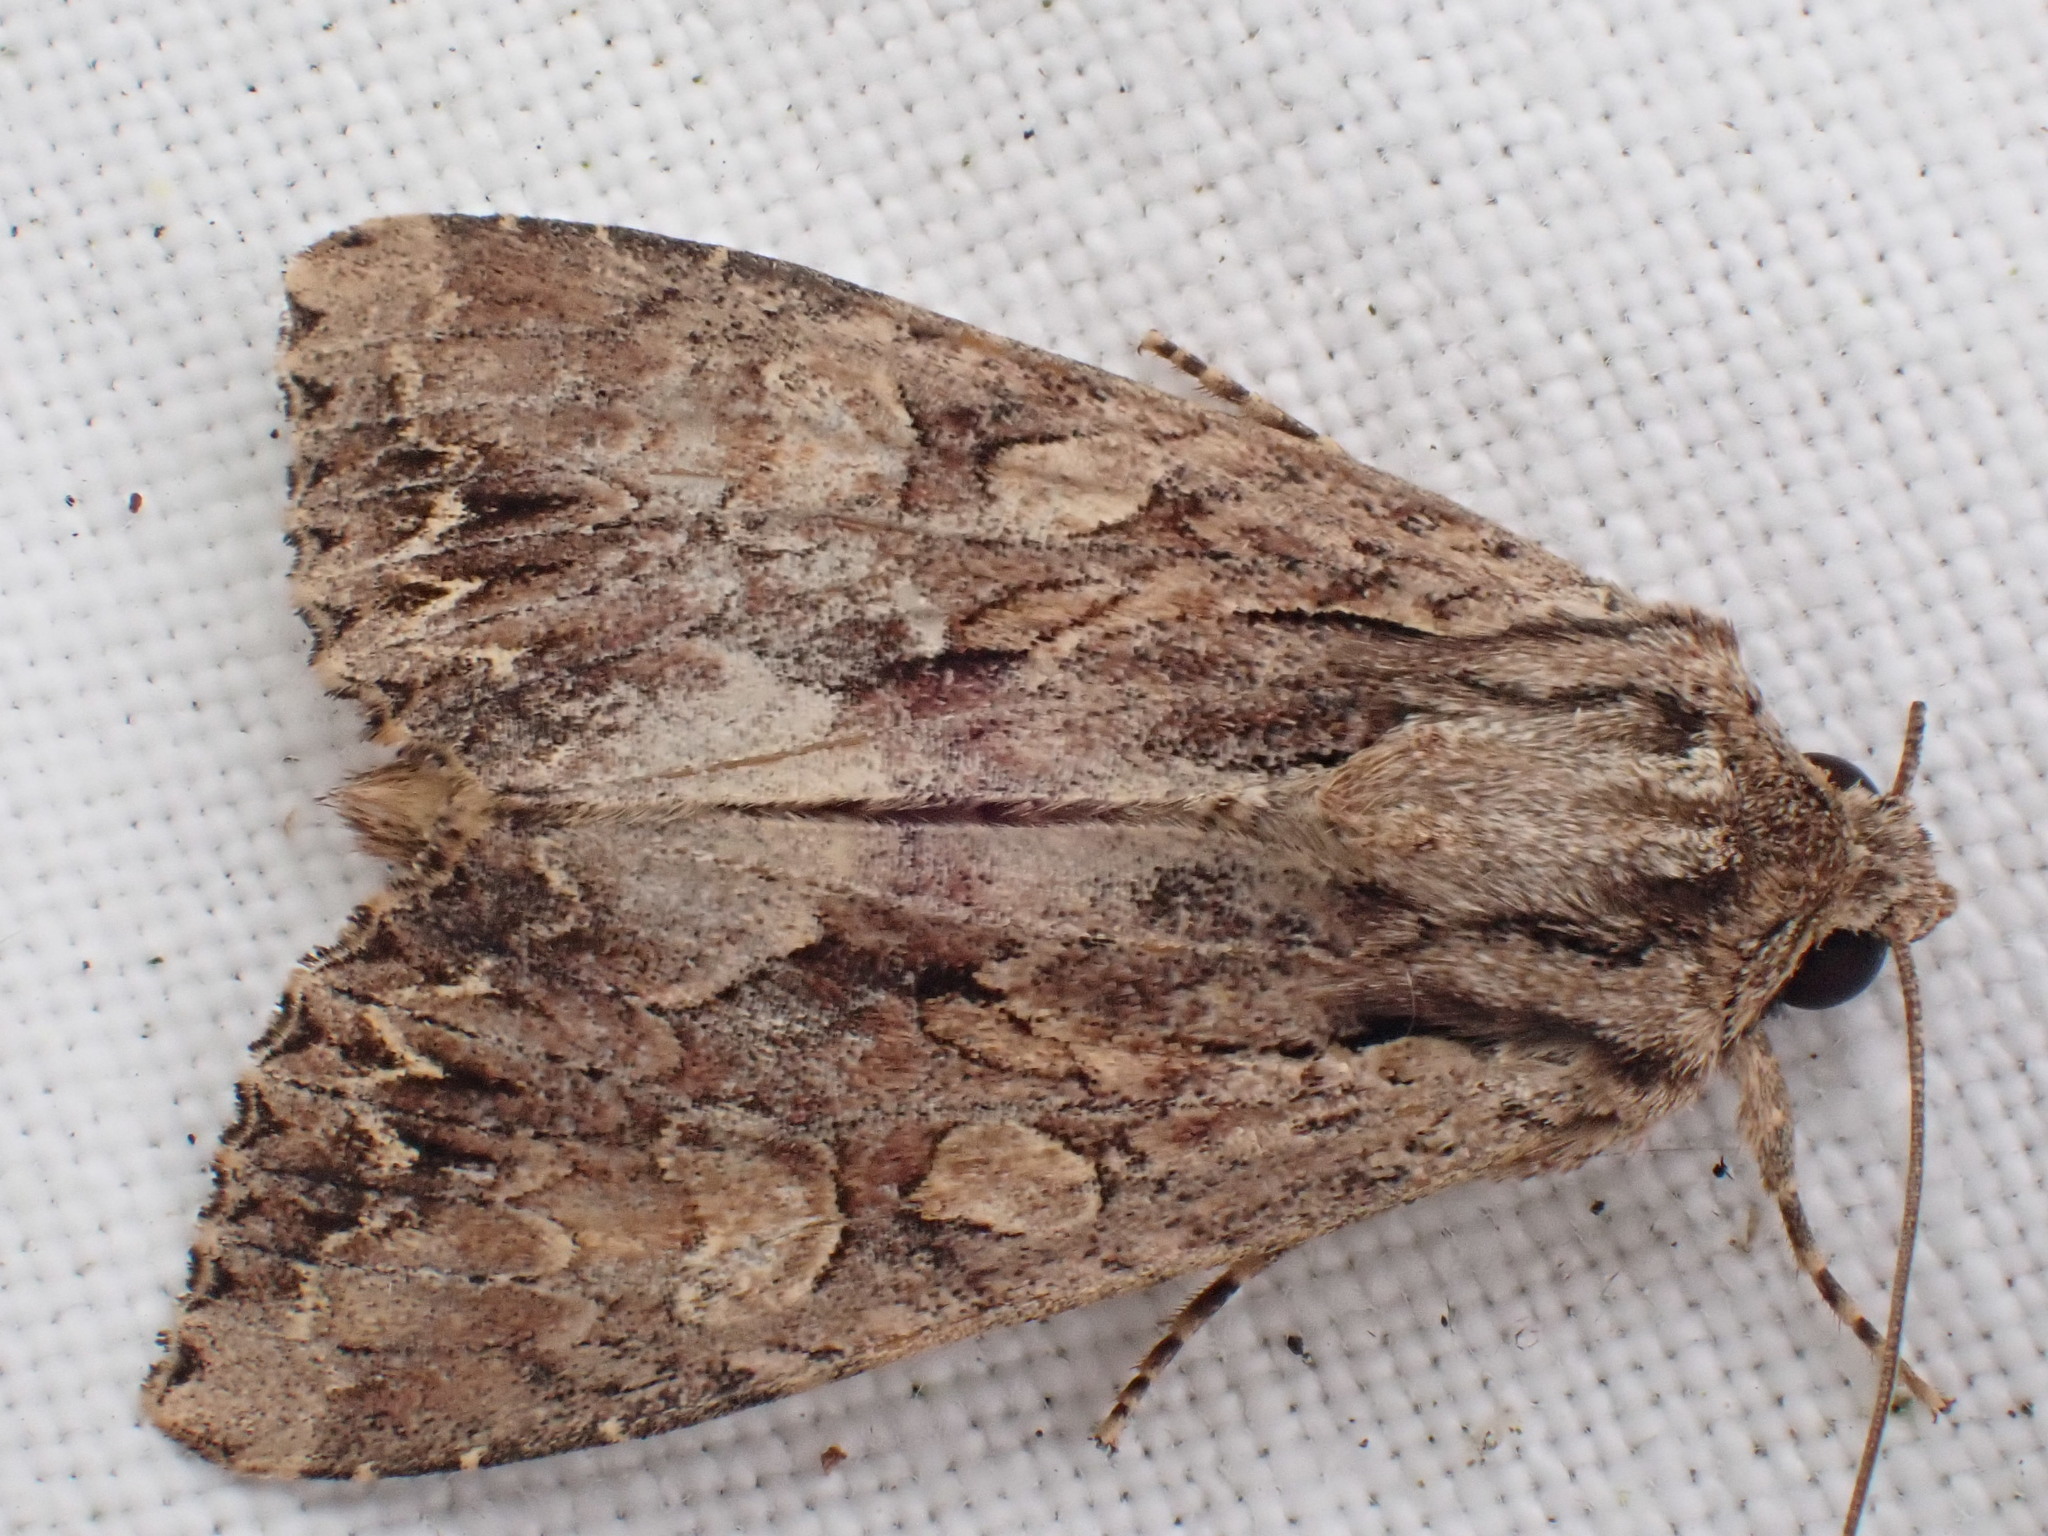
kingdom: Animalia
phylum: Arthropoda
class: Insecta
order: Lepidoptera
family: Noctuidae
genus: Apamea
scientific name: Apamea monoglypha
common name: Dark arches
